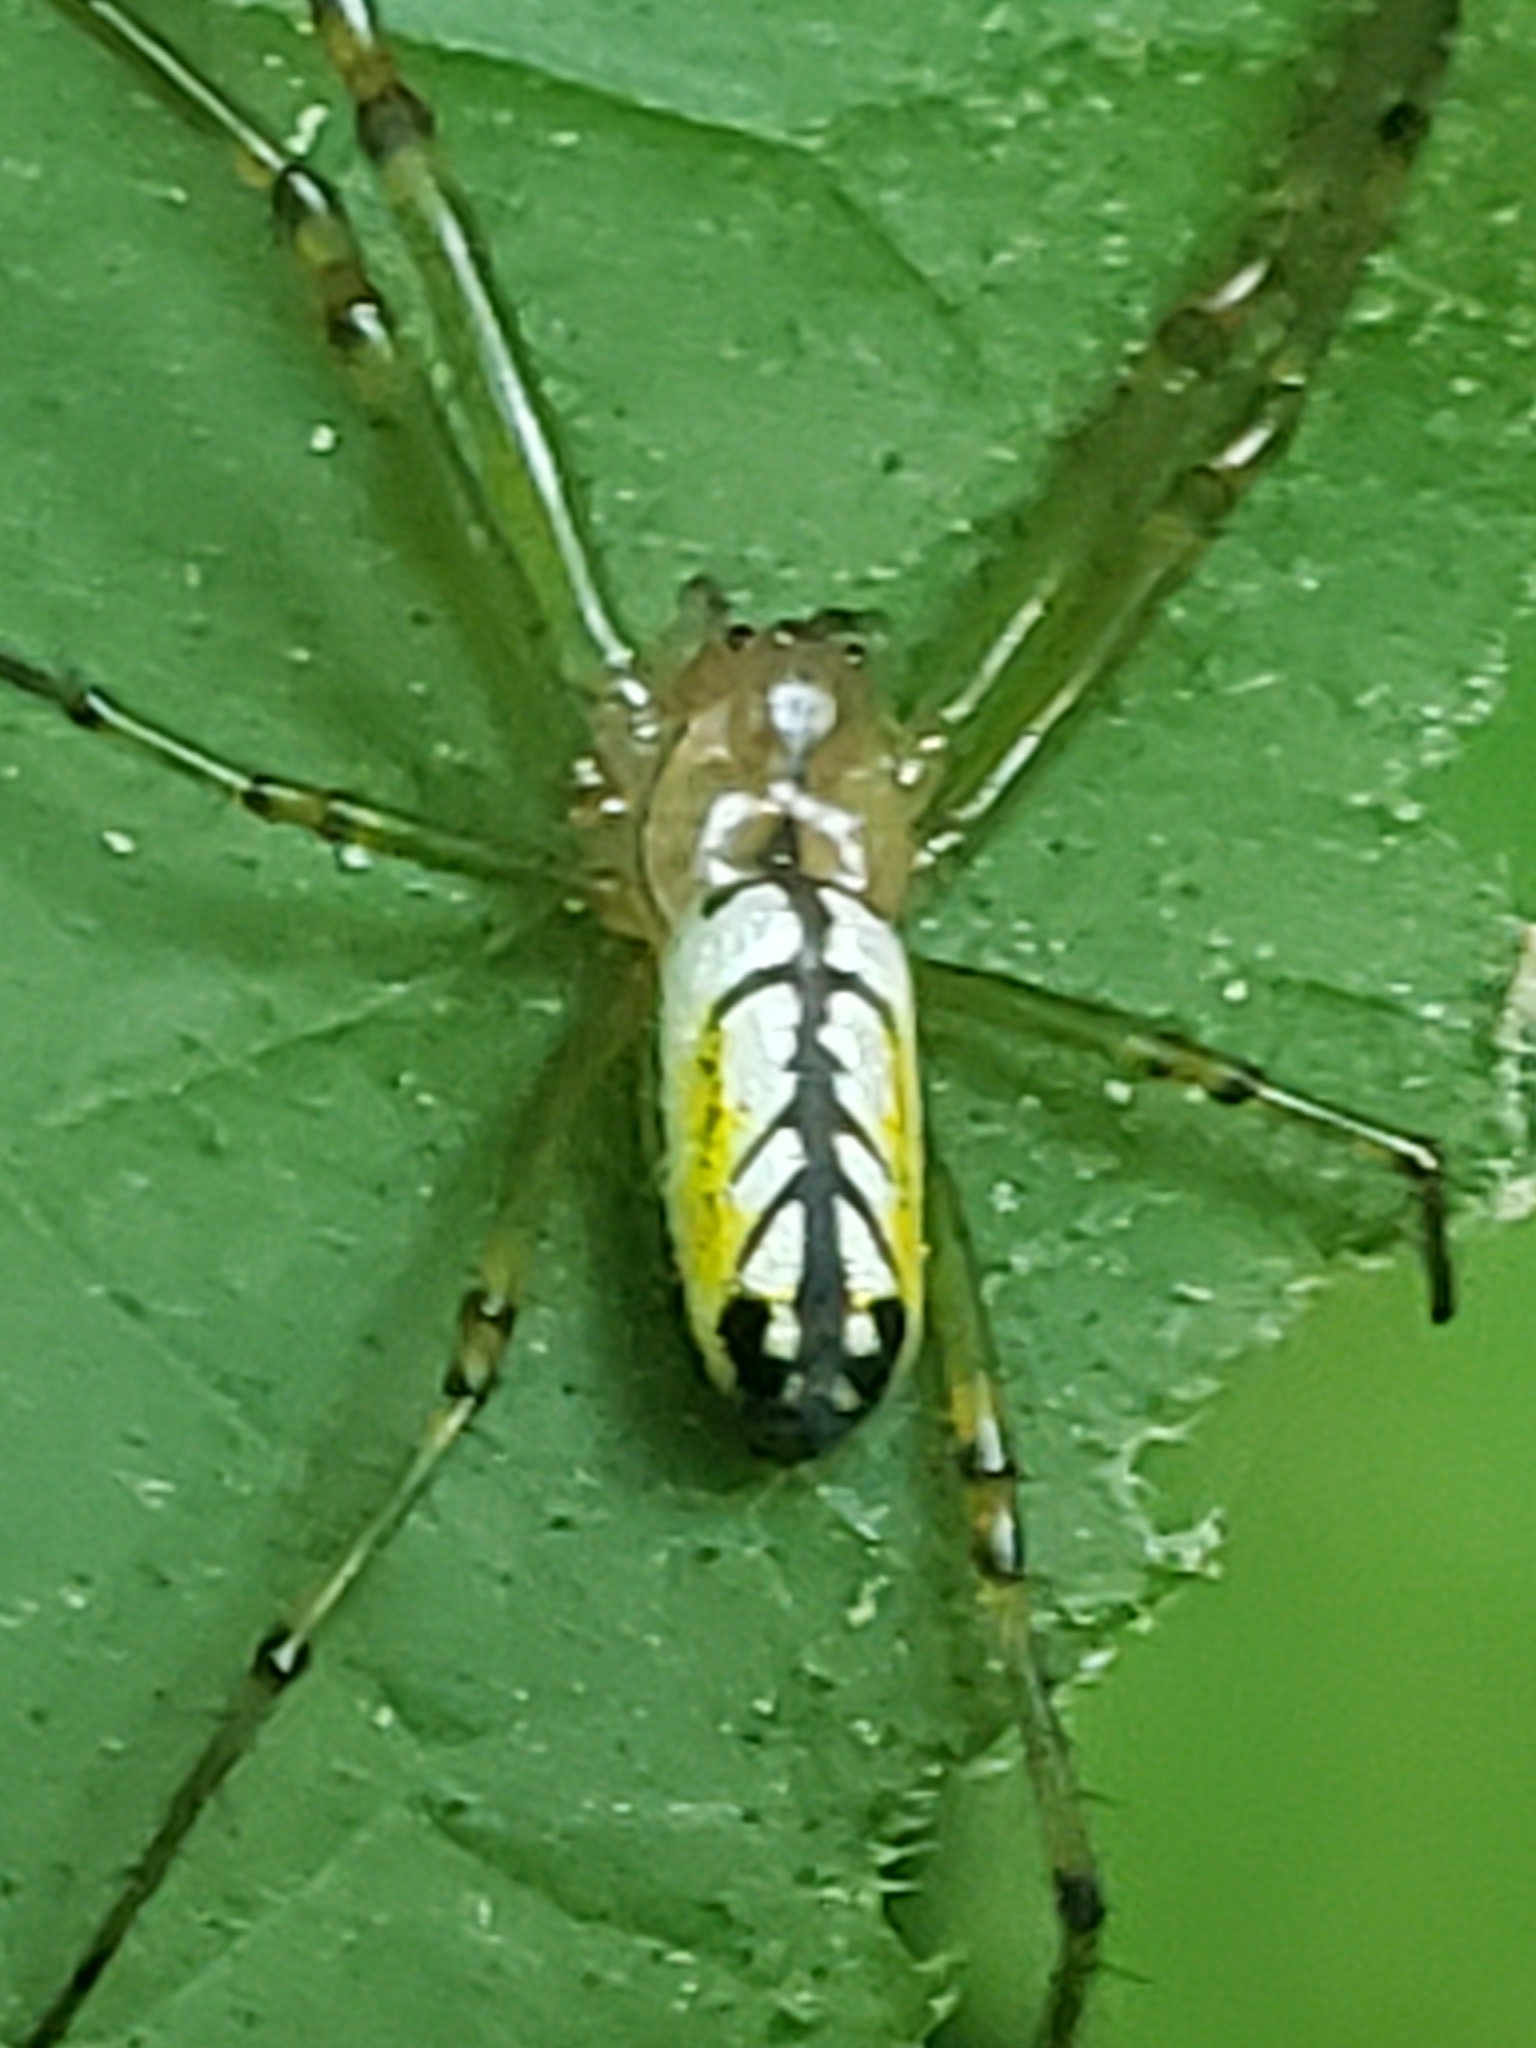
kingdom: Animalia
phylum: Arthropoda
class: Arachnida
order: Araneae
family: Tetragnathidae
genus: Leucauge
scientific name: Leucauge venusta
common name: Longjawed orb weavers
